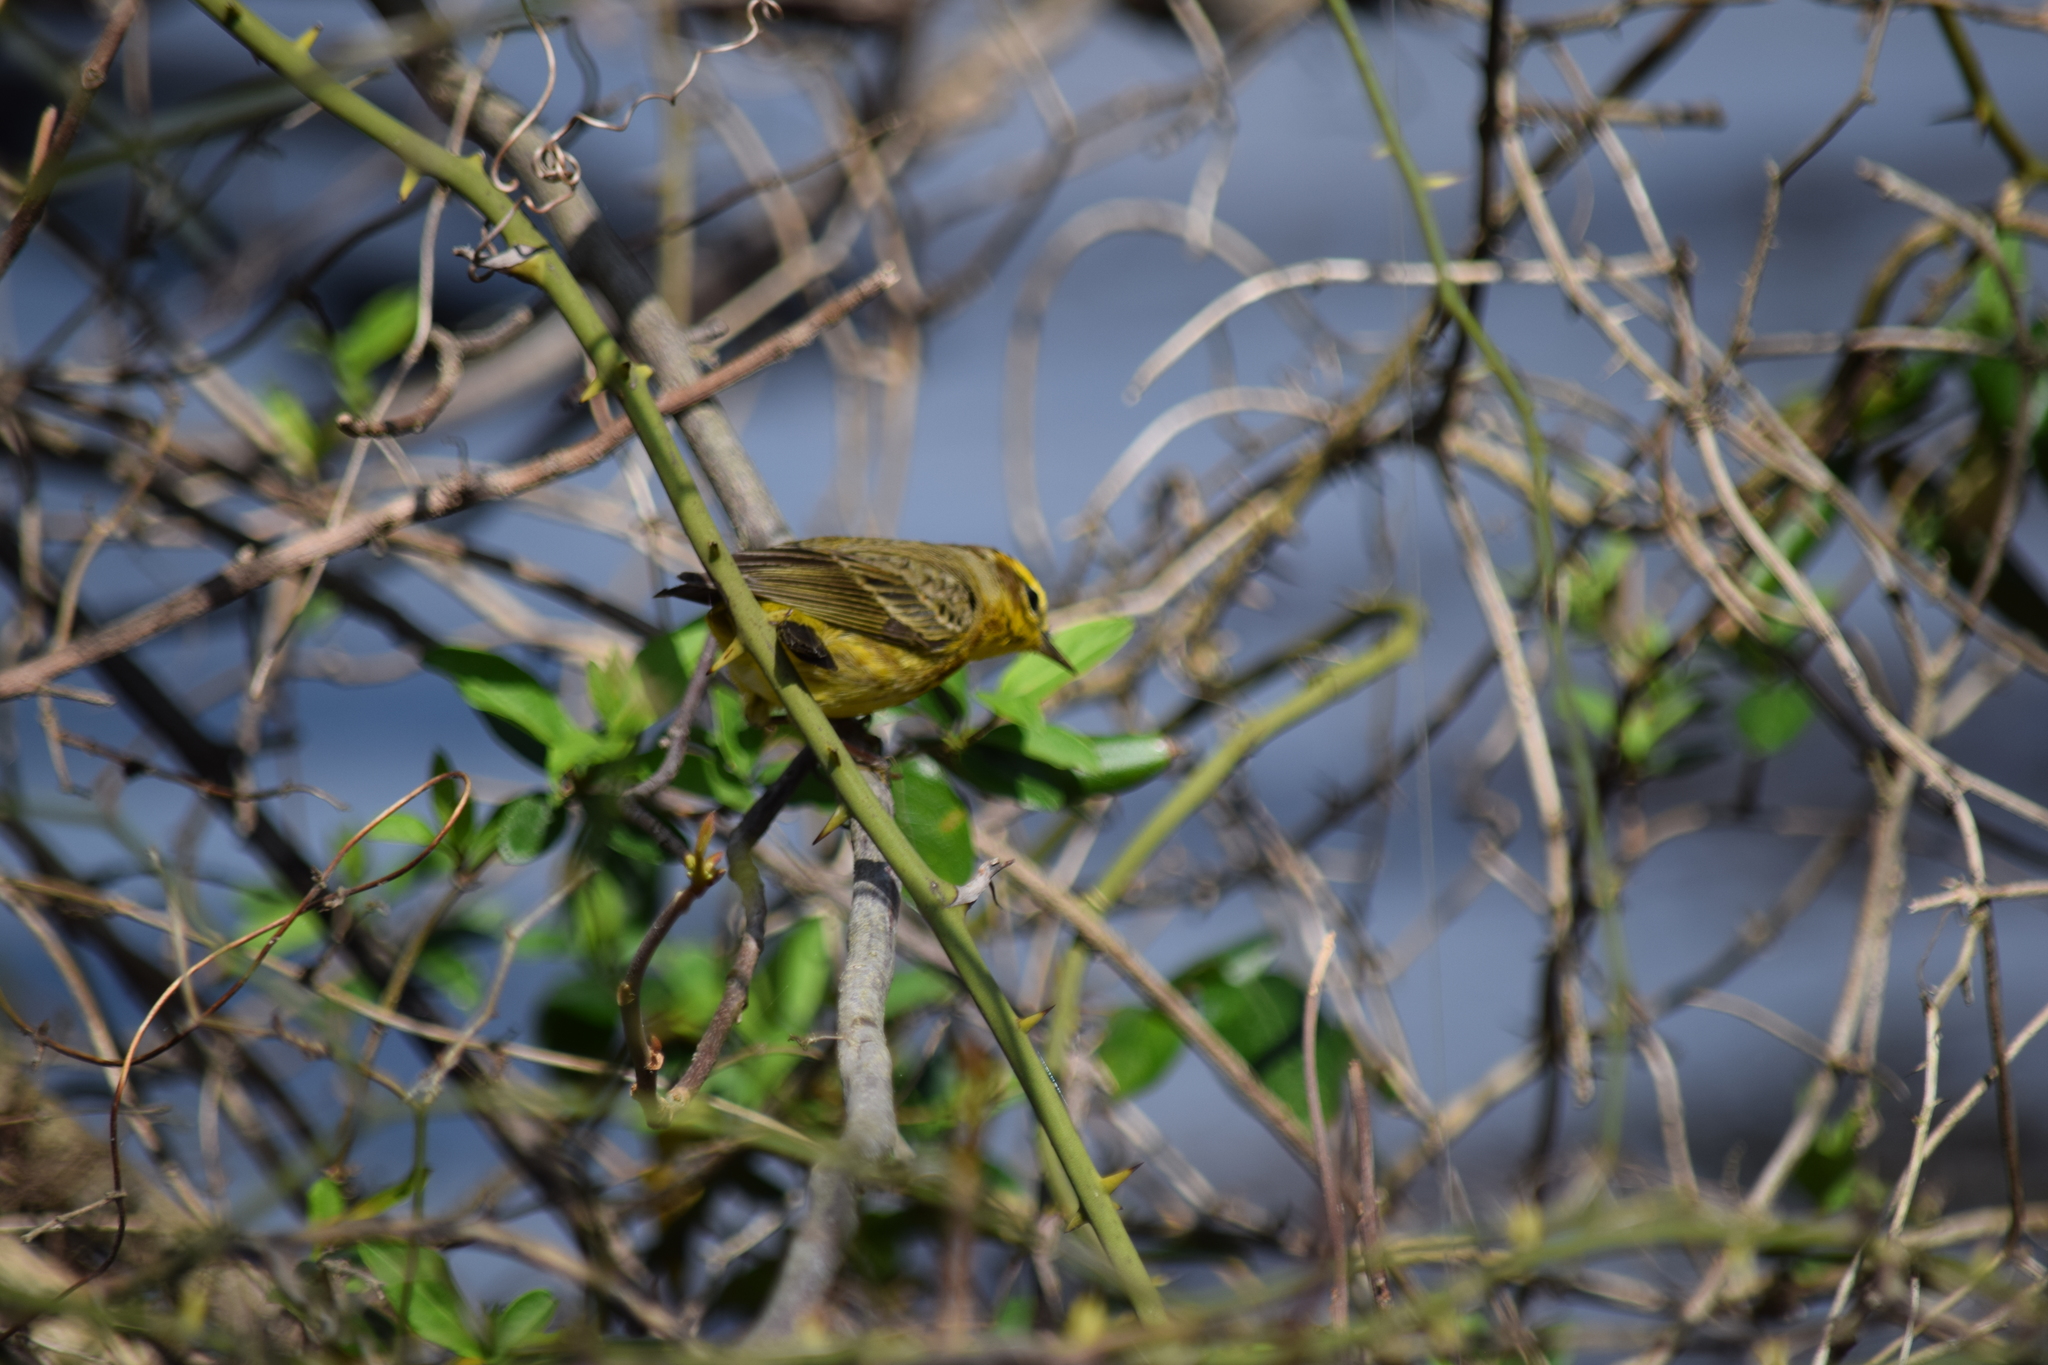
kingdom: Animalia
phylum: Chordata
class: Aves
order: Passeriformes
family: Parulidae
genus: Setophaga
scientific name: Setophaga discolor
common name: Prairie warbler
